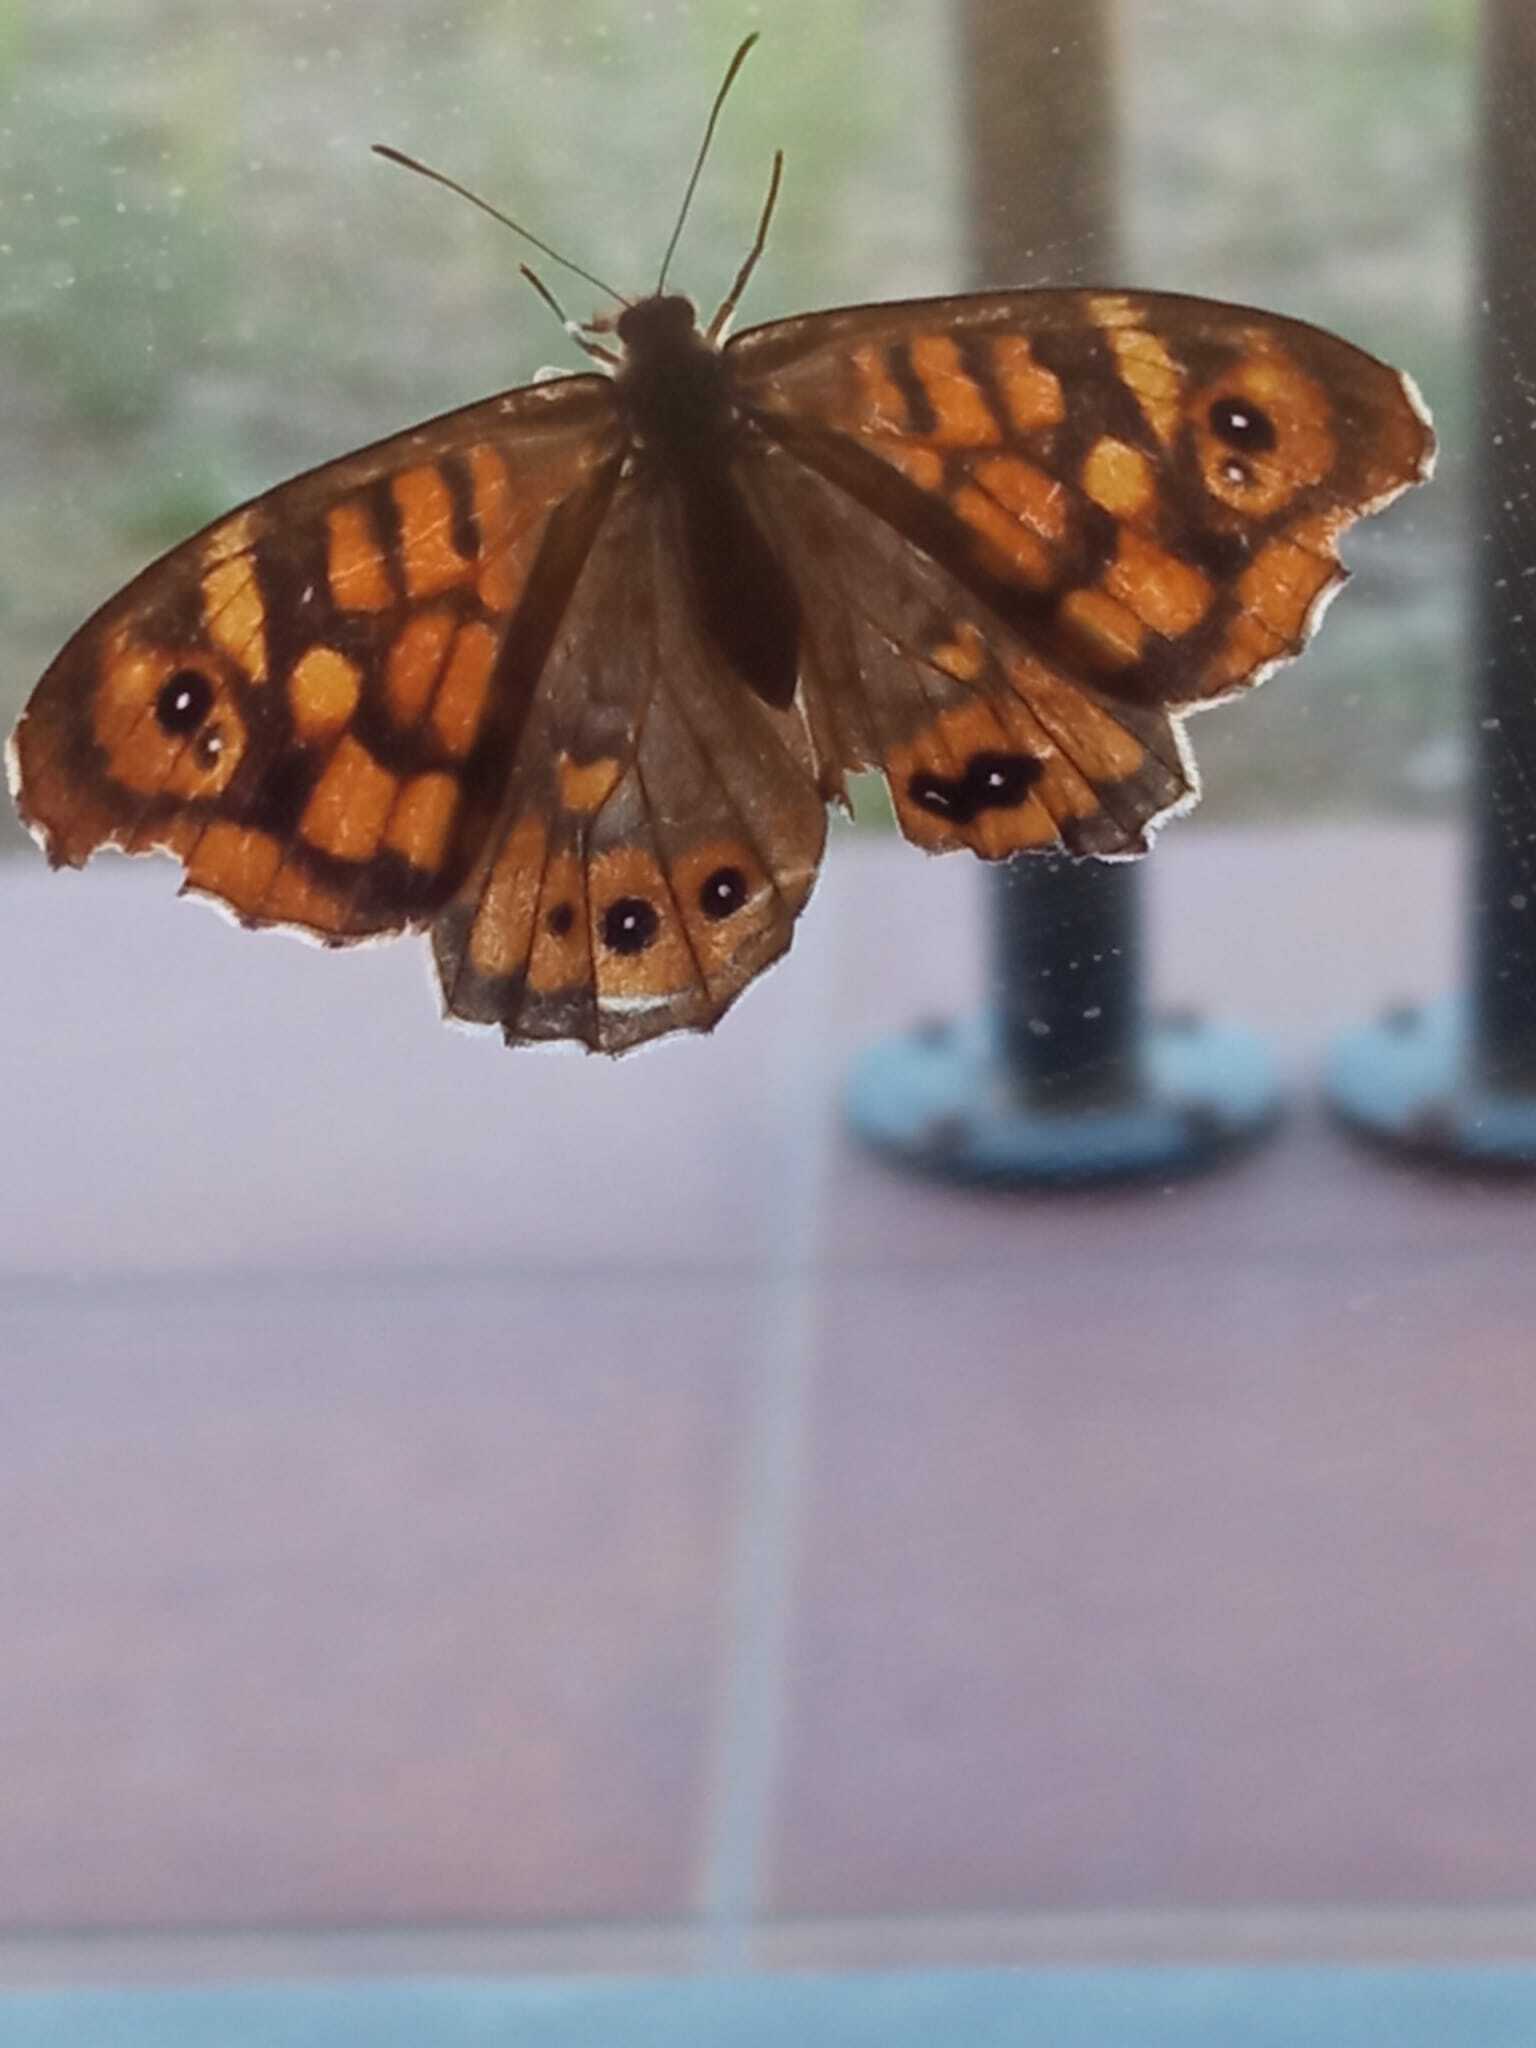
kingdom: Animalia
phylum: Arthropoda
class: Insecta
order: Lepidoptera
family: Nymphalidae
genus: Pararge
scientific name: Pararge aegeria
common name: Speckled wood
